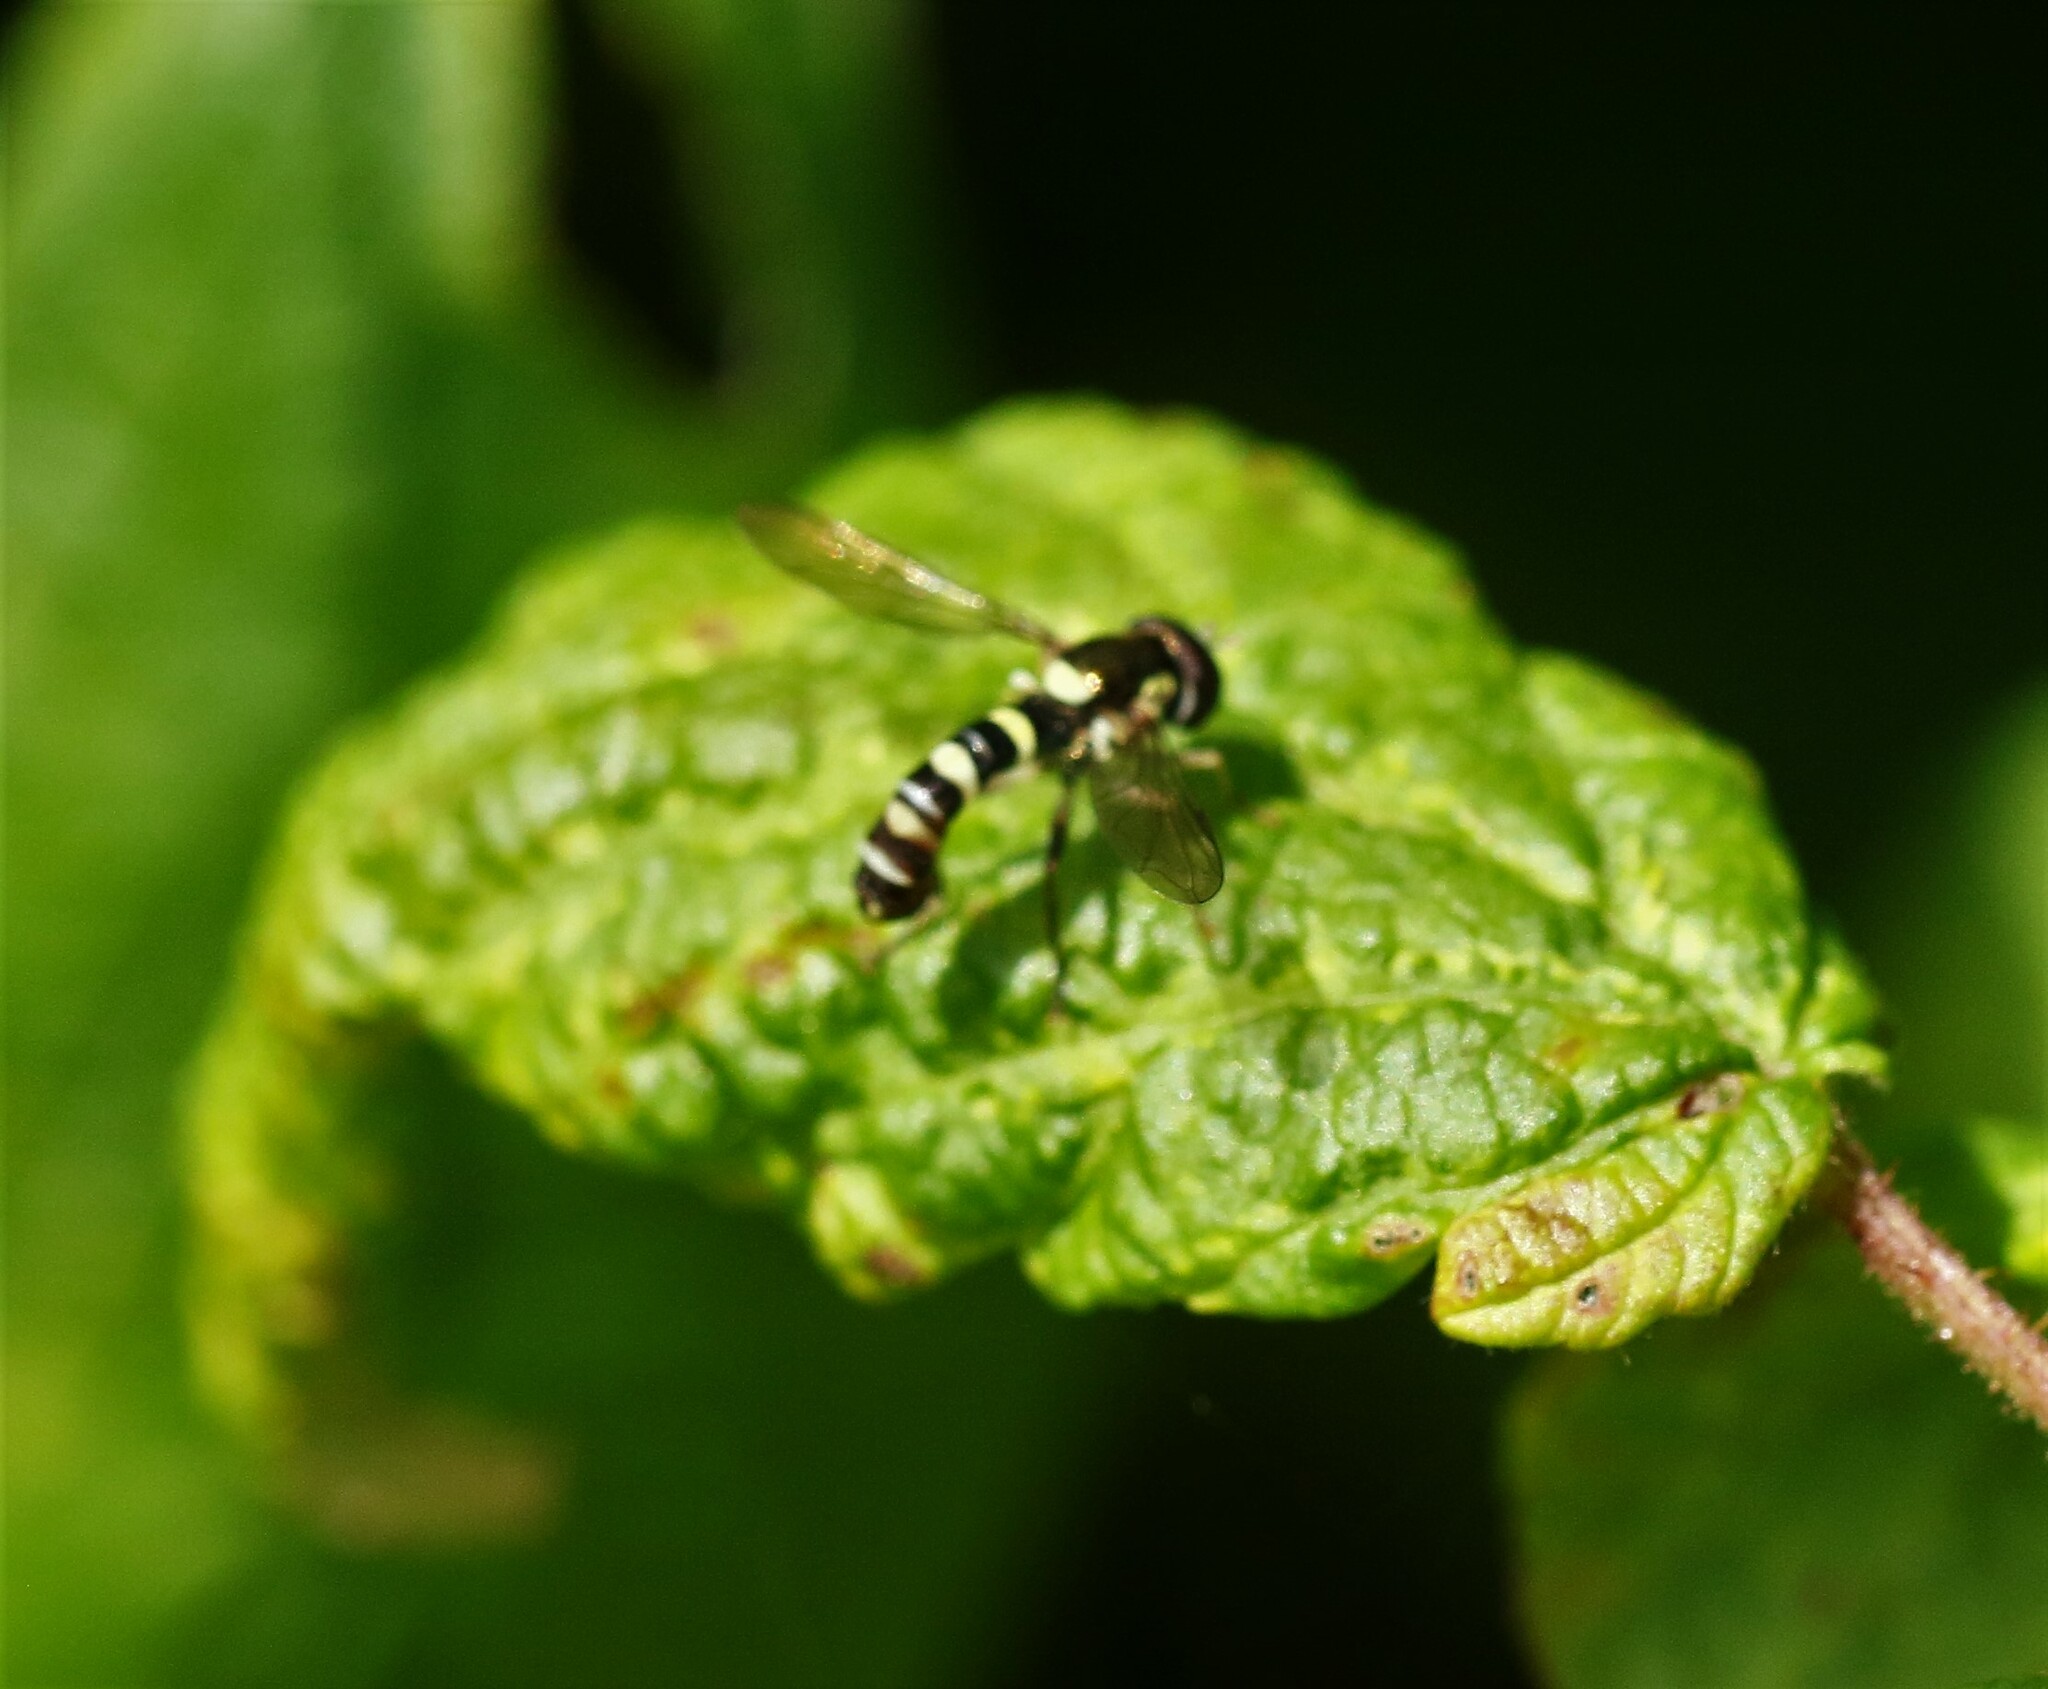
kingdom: Animalia
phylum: Arthropoda
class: Insecta
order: Diptera
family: Syrphidae
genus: Sphaerophoria
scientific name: Sphaerophoria novaeangliae
